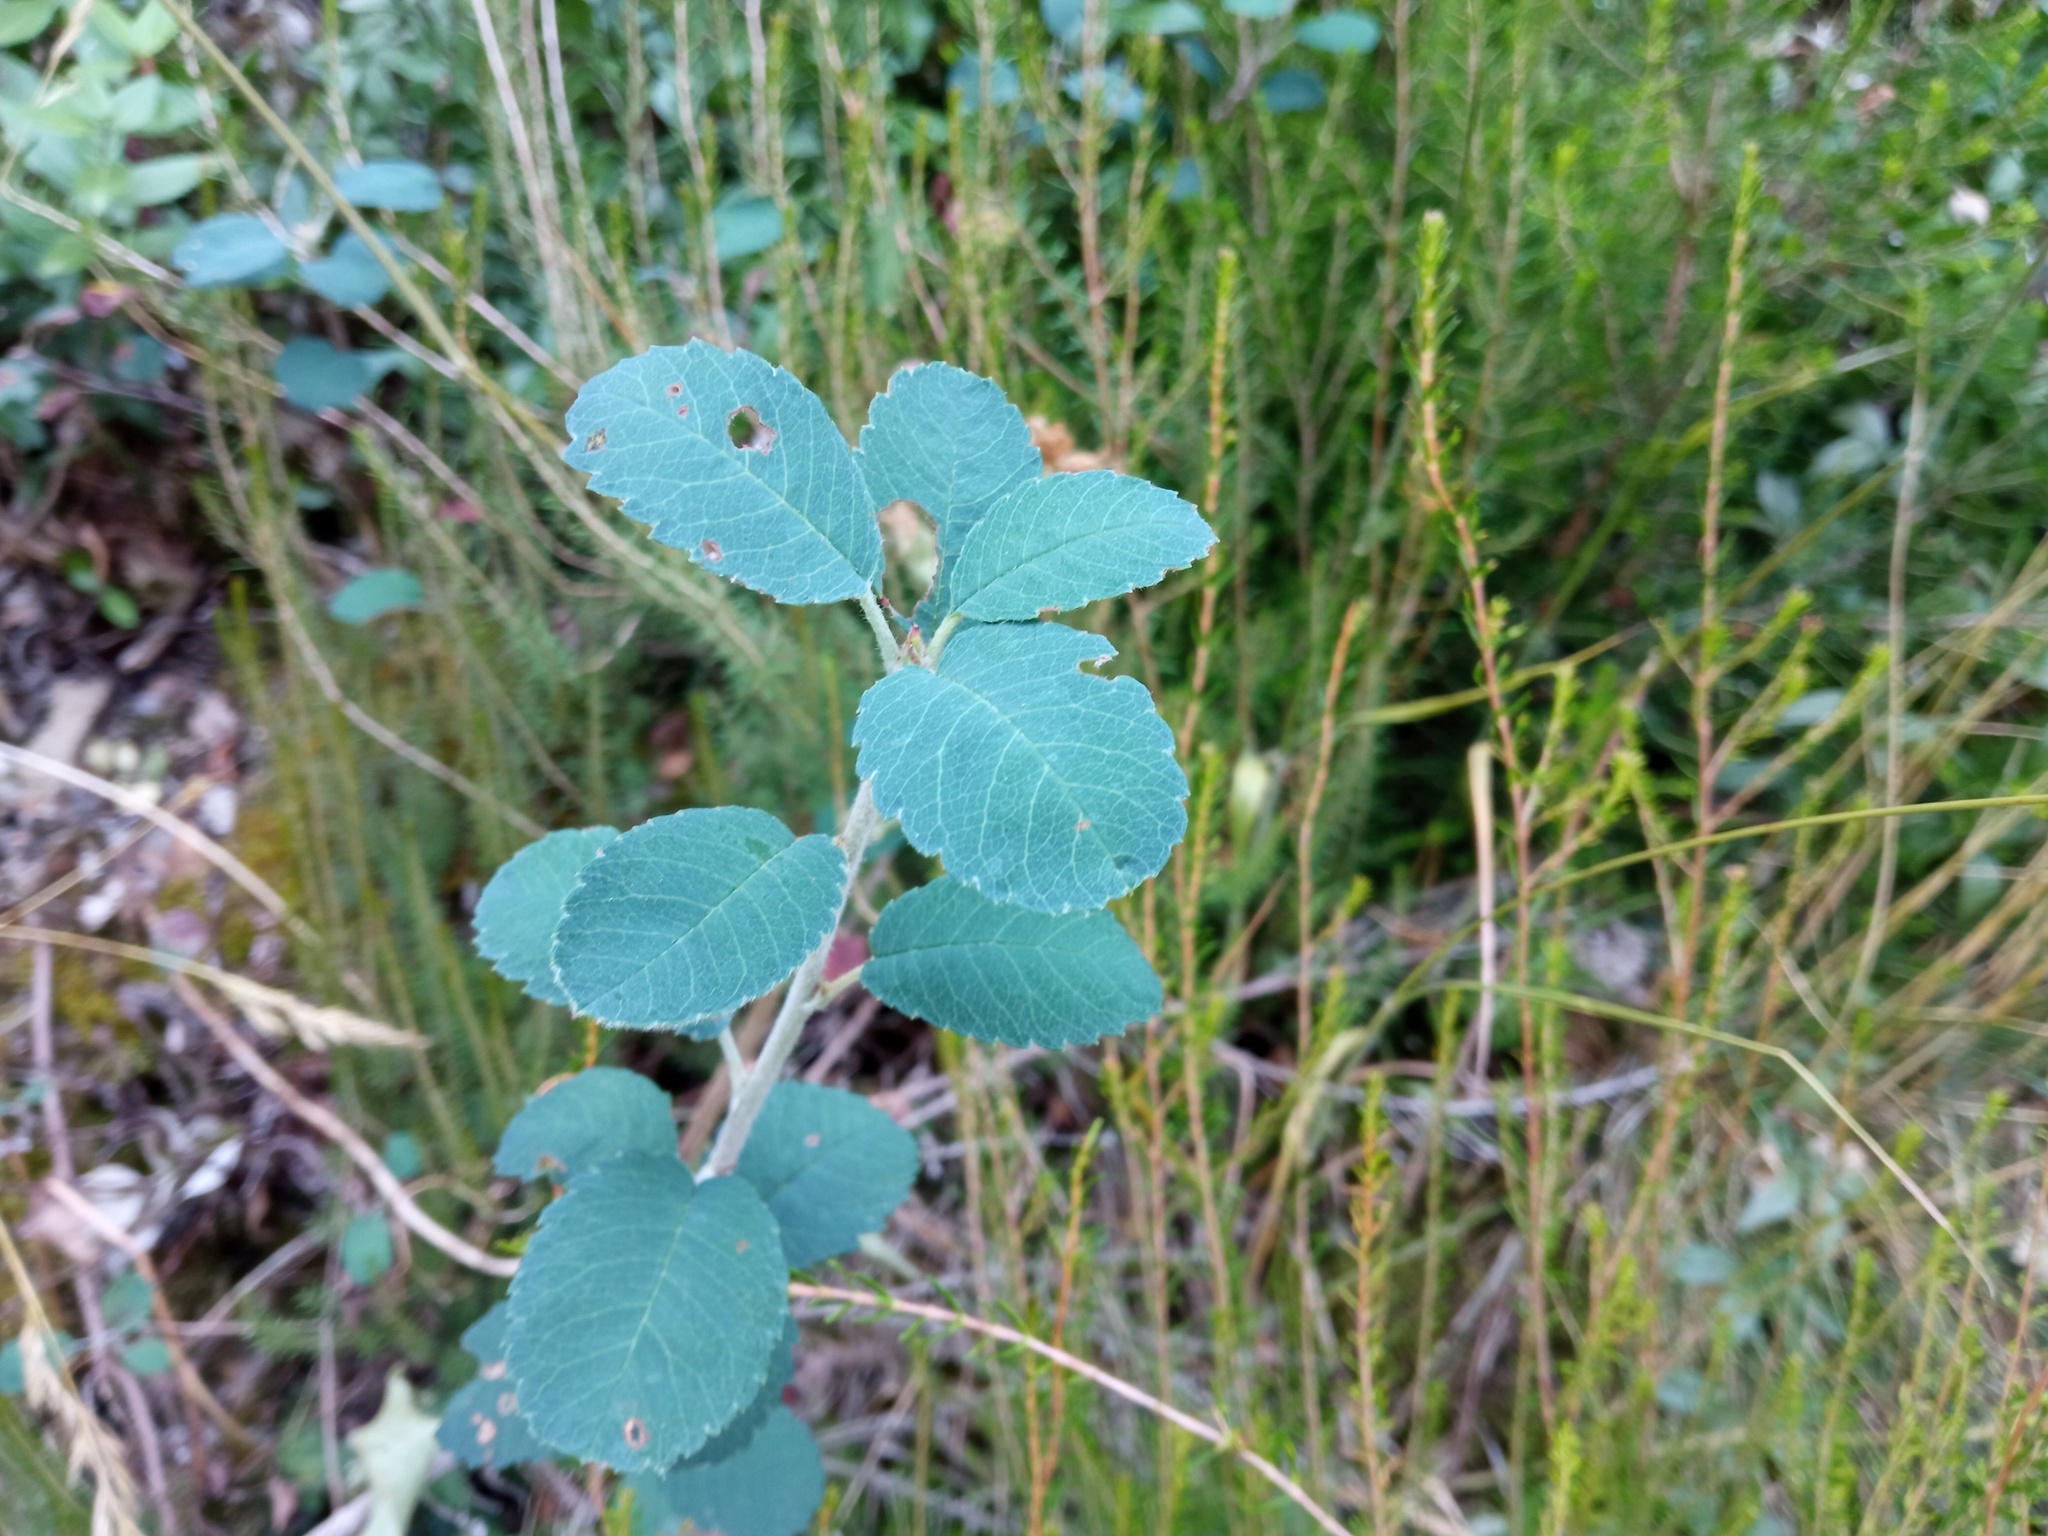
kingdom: Plantae
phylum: Tracheophyta
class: Magnoliopsida
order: Rosales
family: Rosaceae
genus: Amelanchier
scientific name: Amelanchier ovalis
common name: Serviceberry
